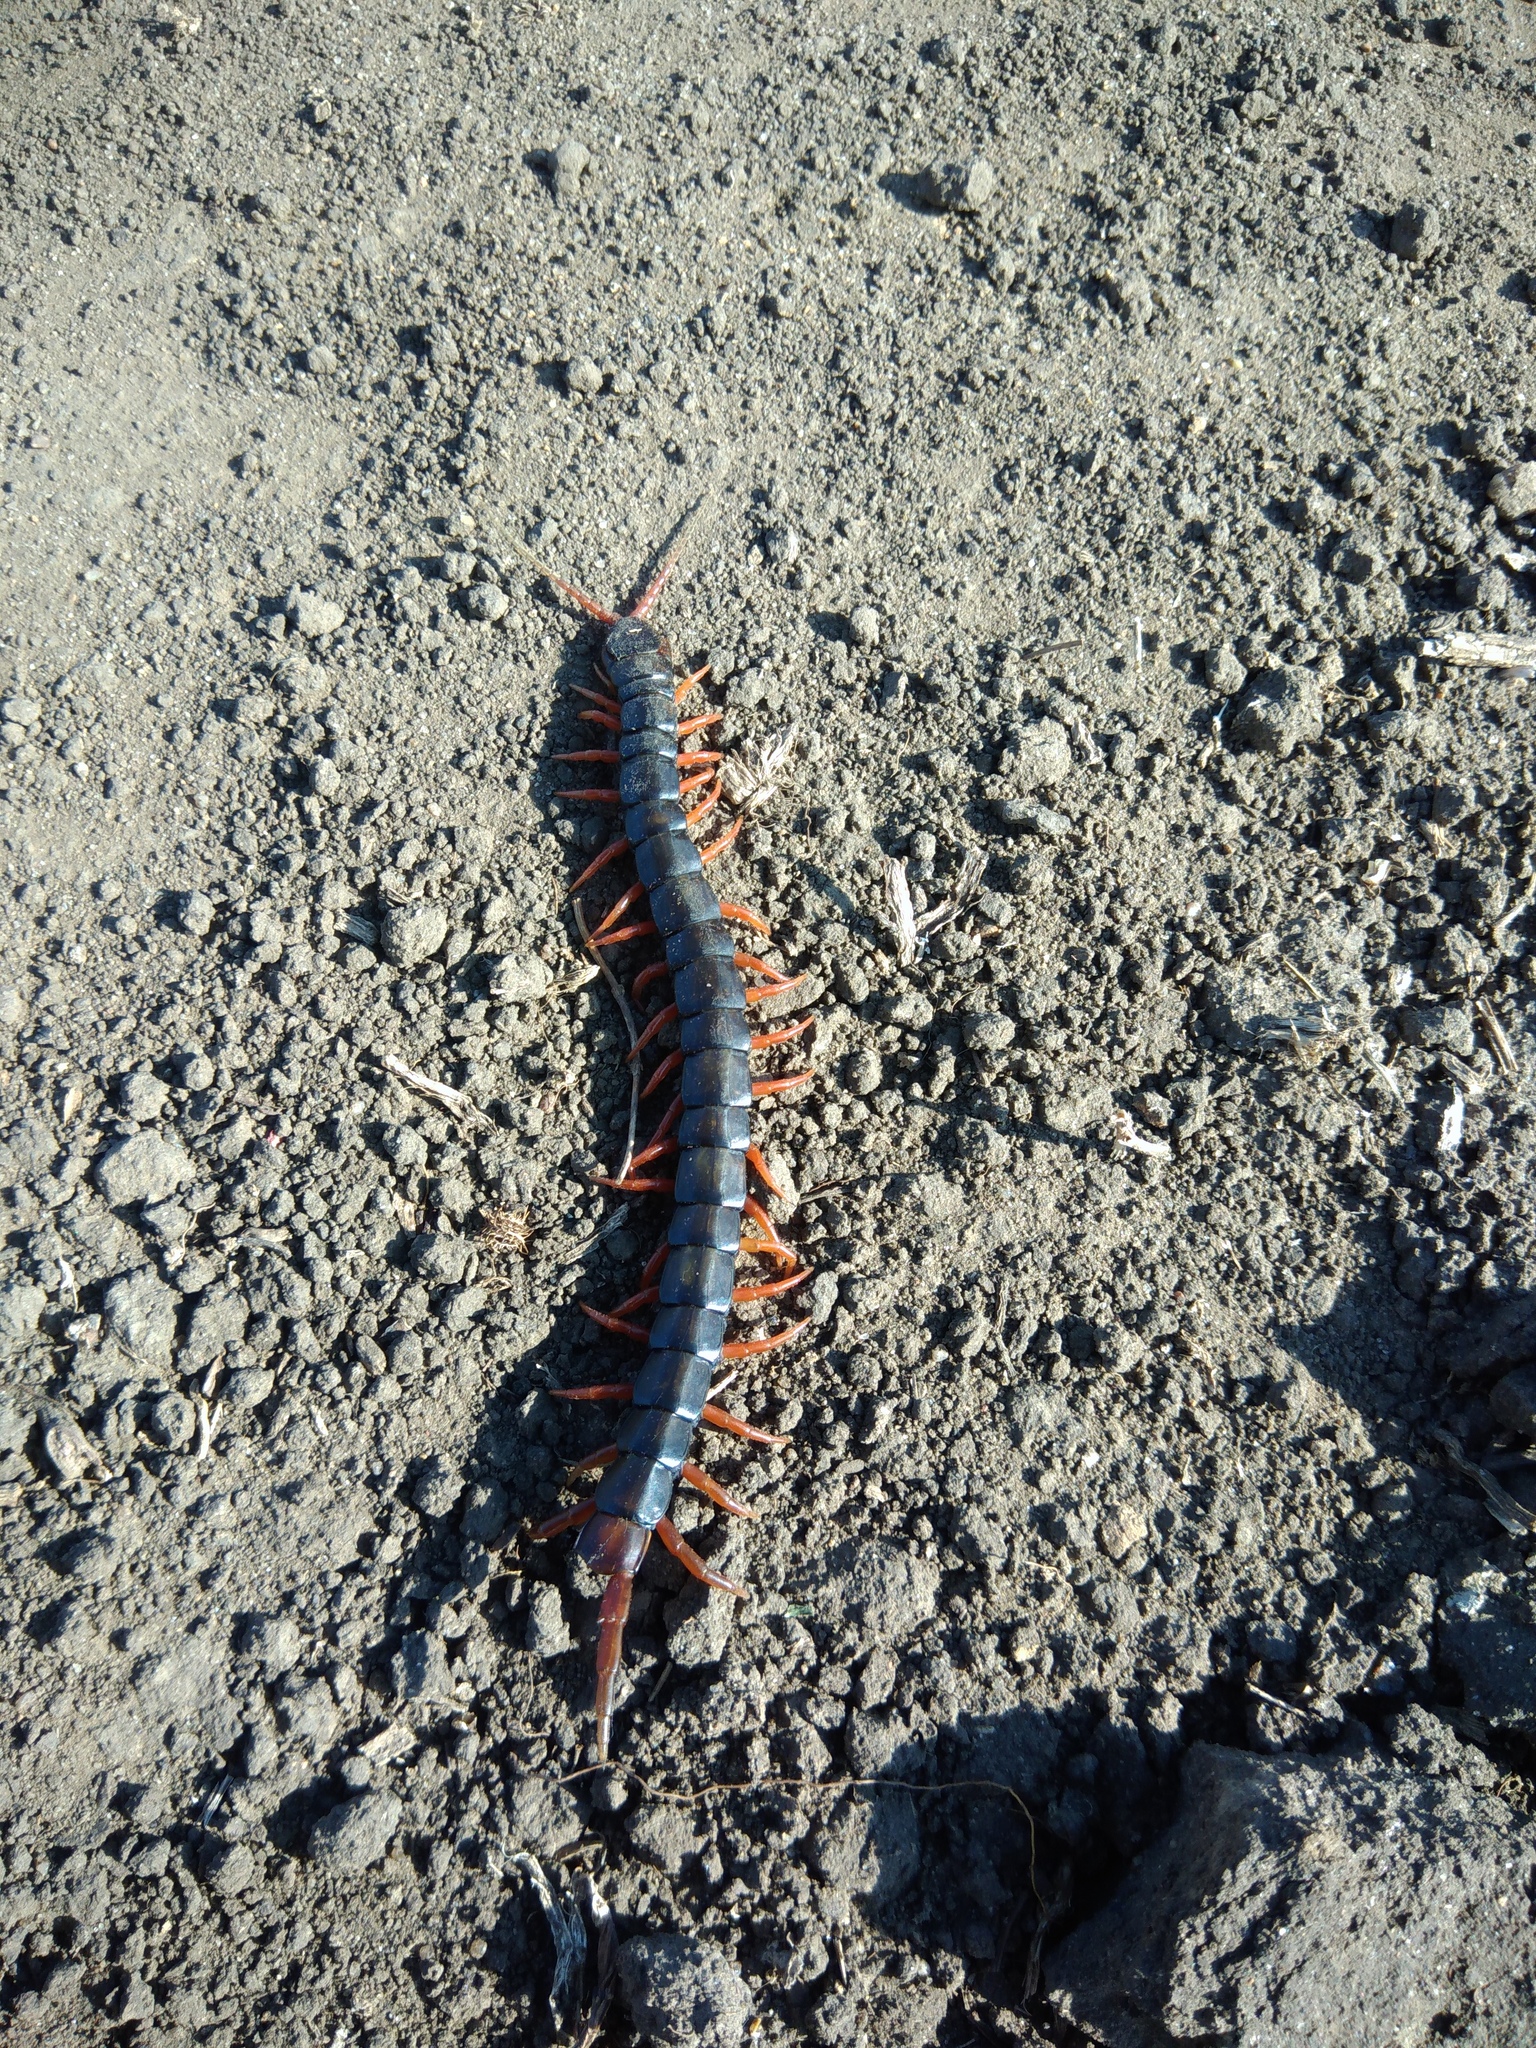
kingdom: Animalia
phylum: Arthropoda
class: Chilopoda
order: Scolopendromorpha
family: Scolopendridae
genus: Scolopendra
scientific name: Scolopendra cingulata
